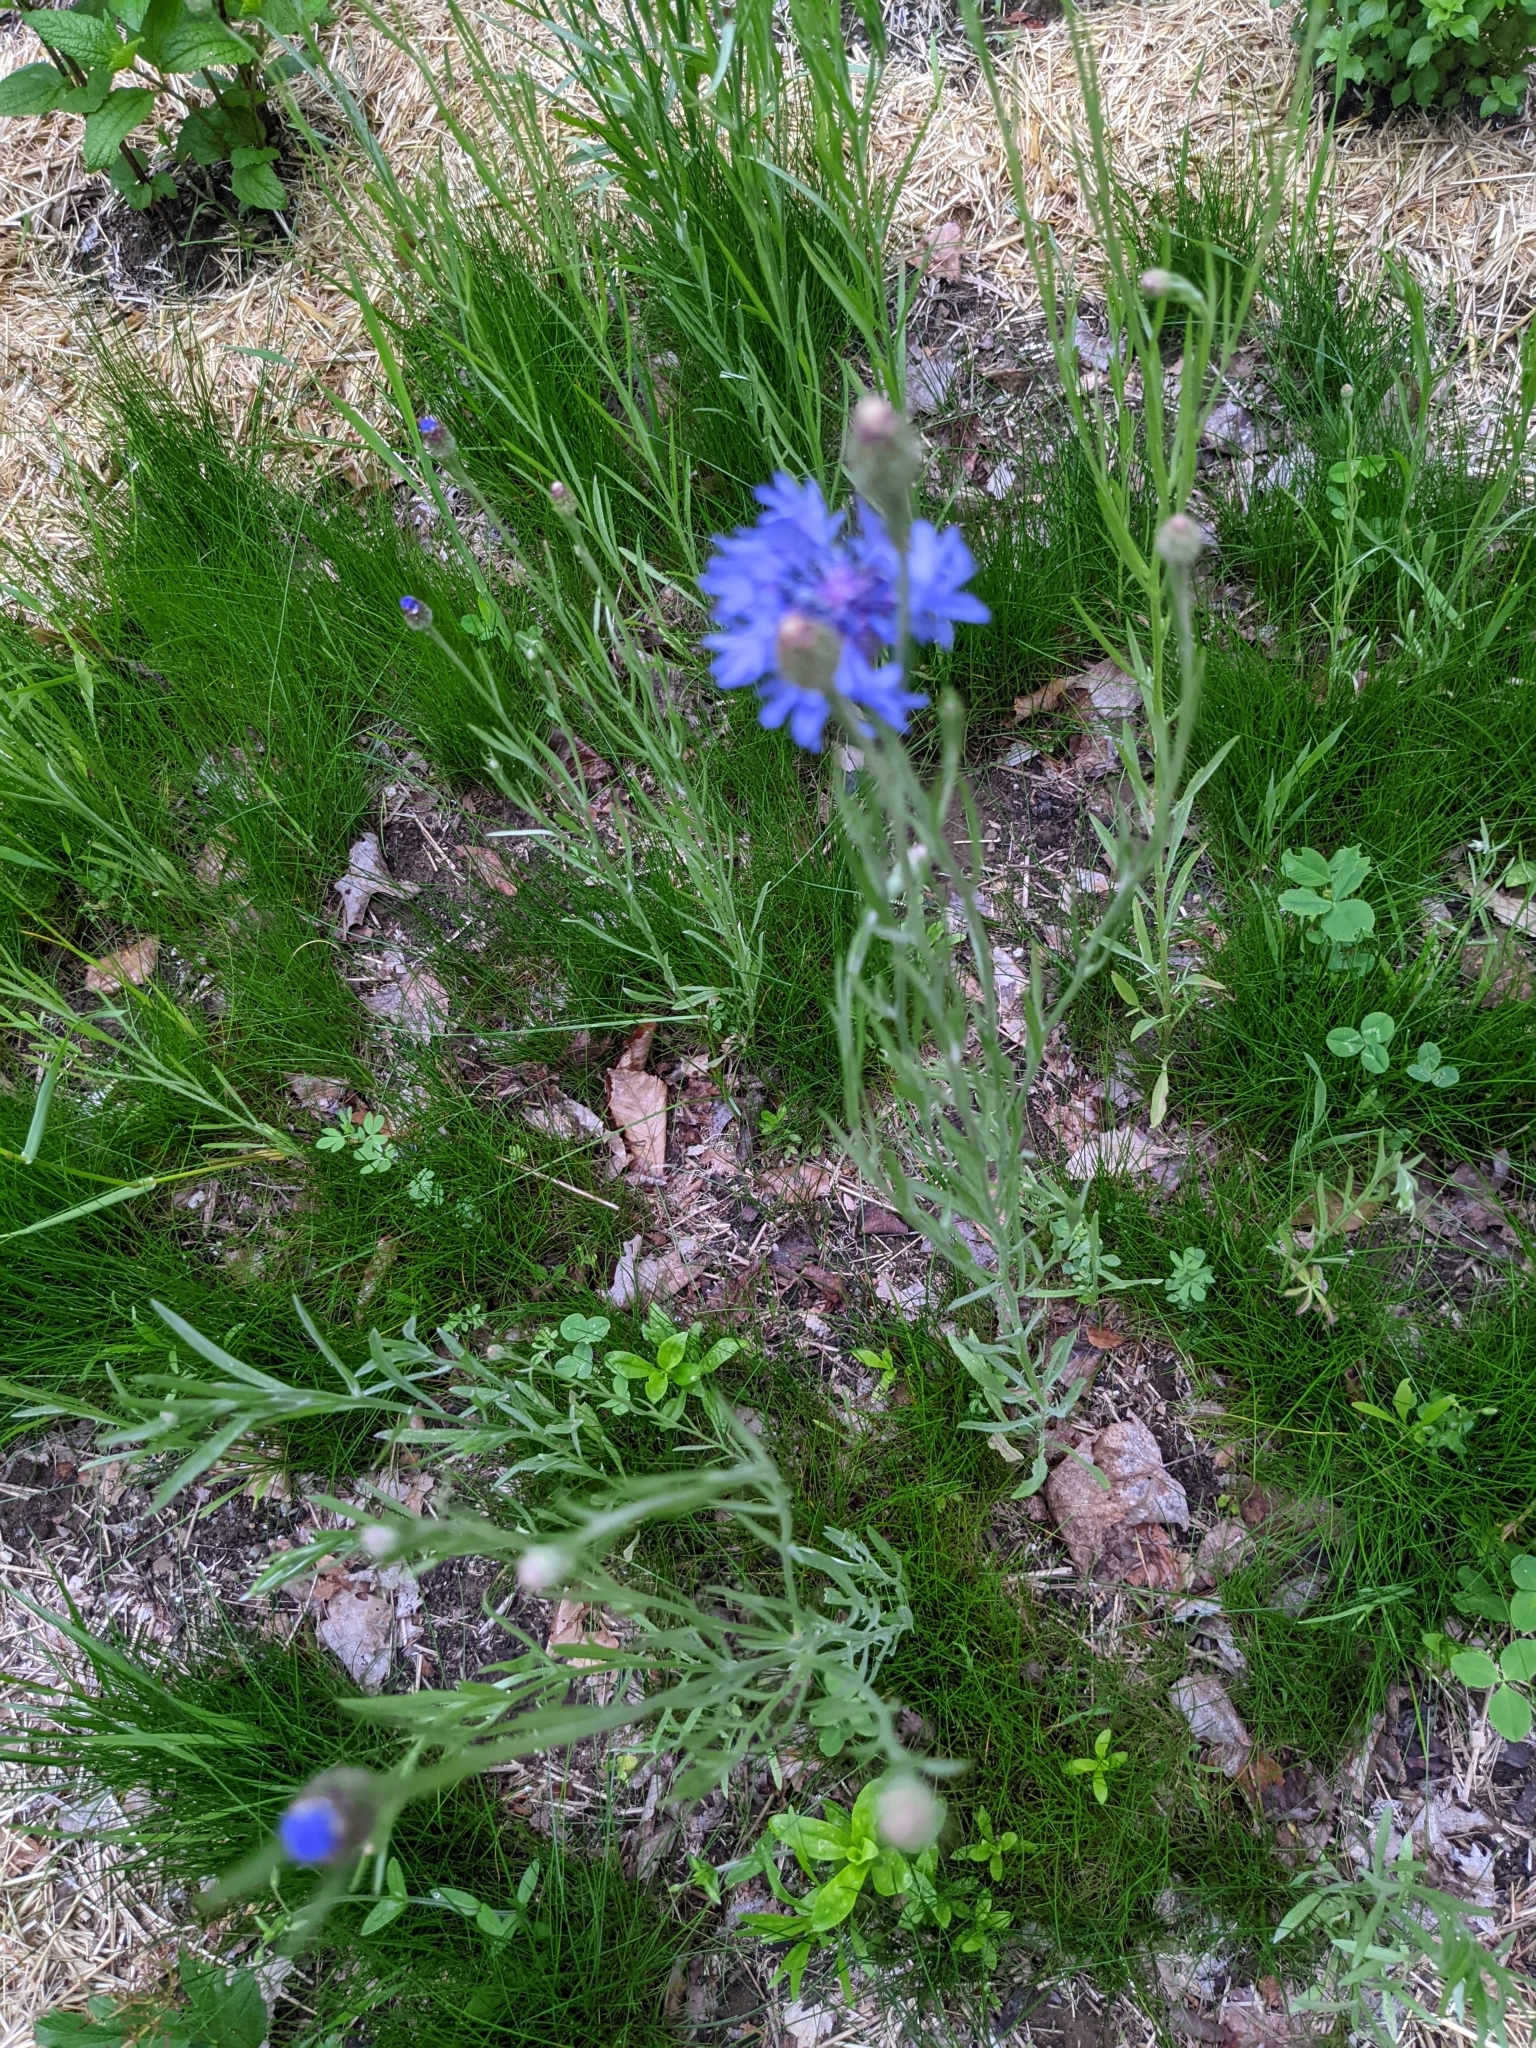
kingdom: Plantae
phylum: Tracheophyta
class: Magnoliopsida
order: Asterales
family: Asteraceae
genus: Centaurea
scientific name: Centaurea cyanus
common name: Cornflower
